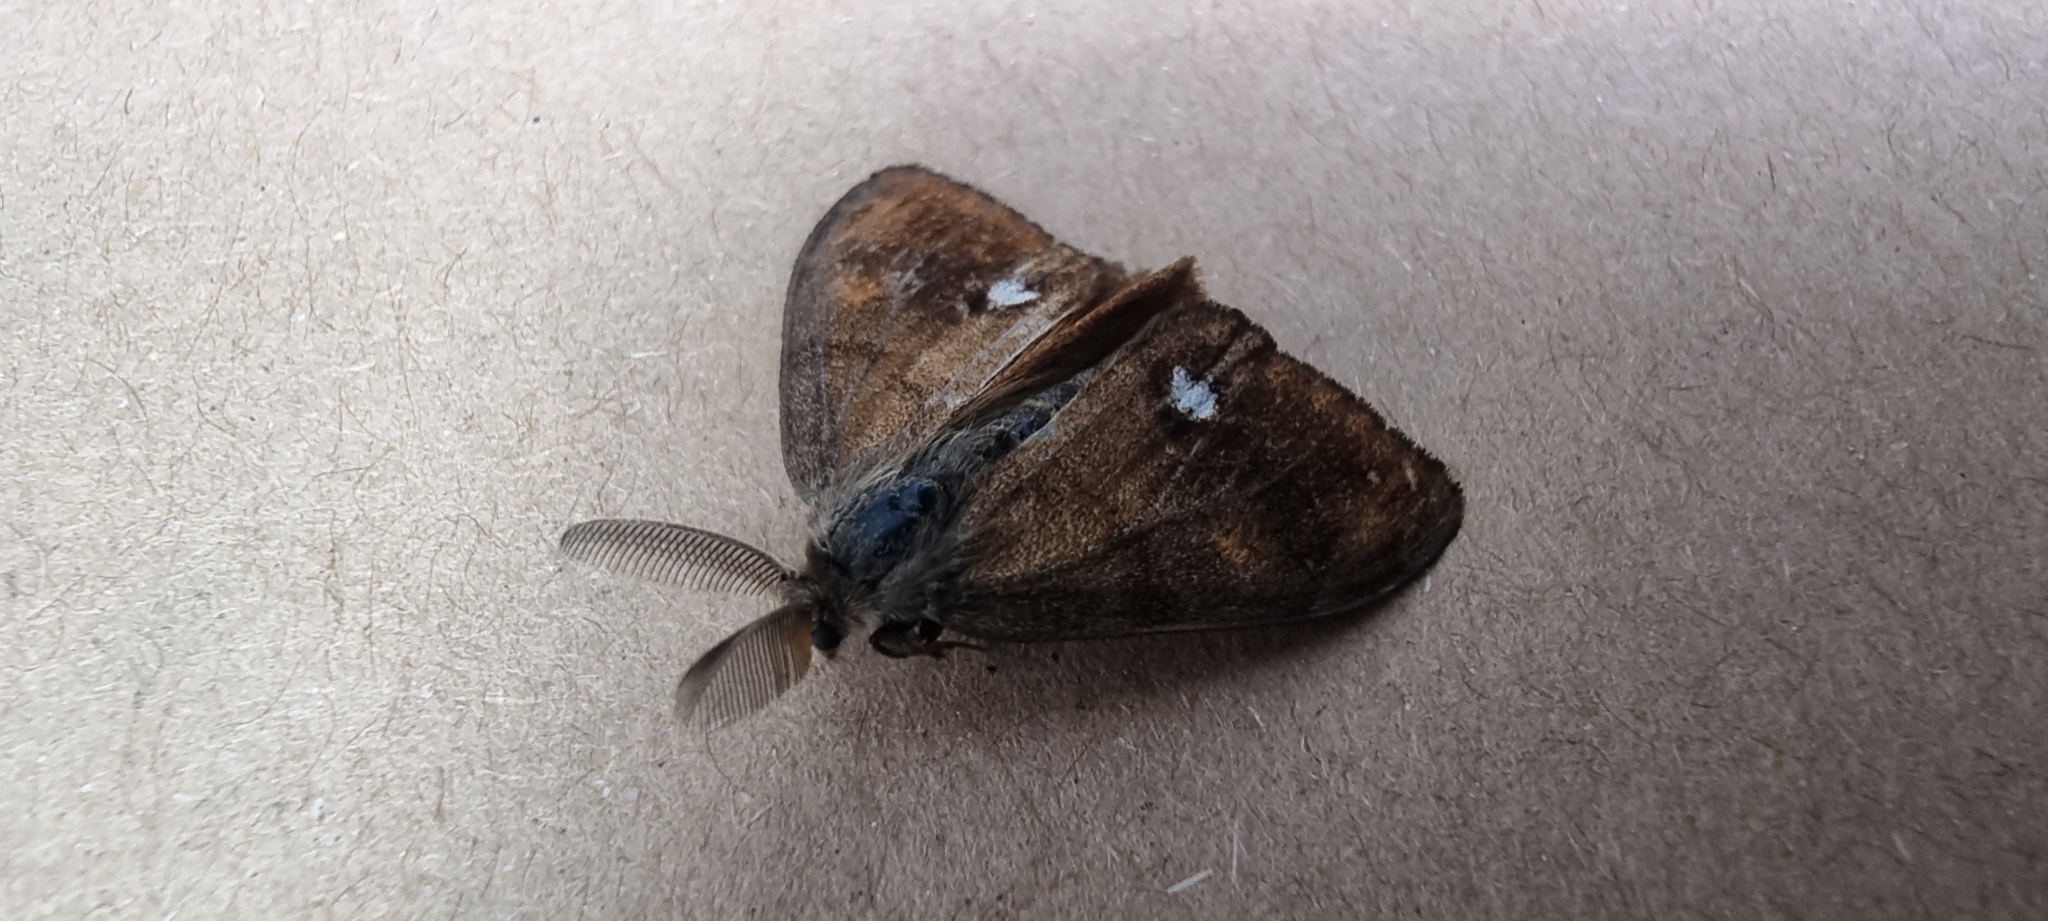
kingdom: Animalia
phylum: Arthropoda
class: Insecta
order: Lepidoptera
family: Erebidae
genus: Orgyia
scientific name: Orgyia antiqua
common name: Vapourer
